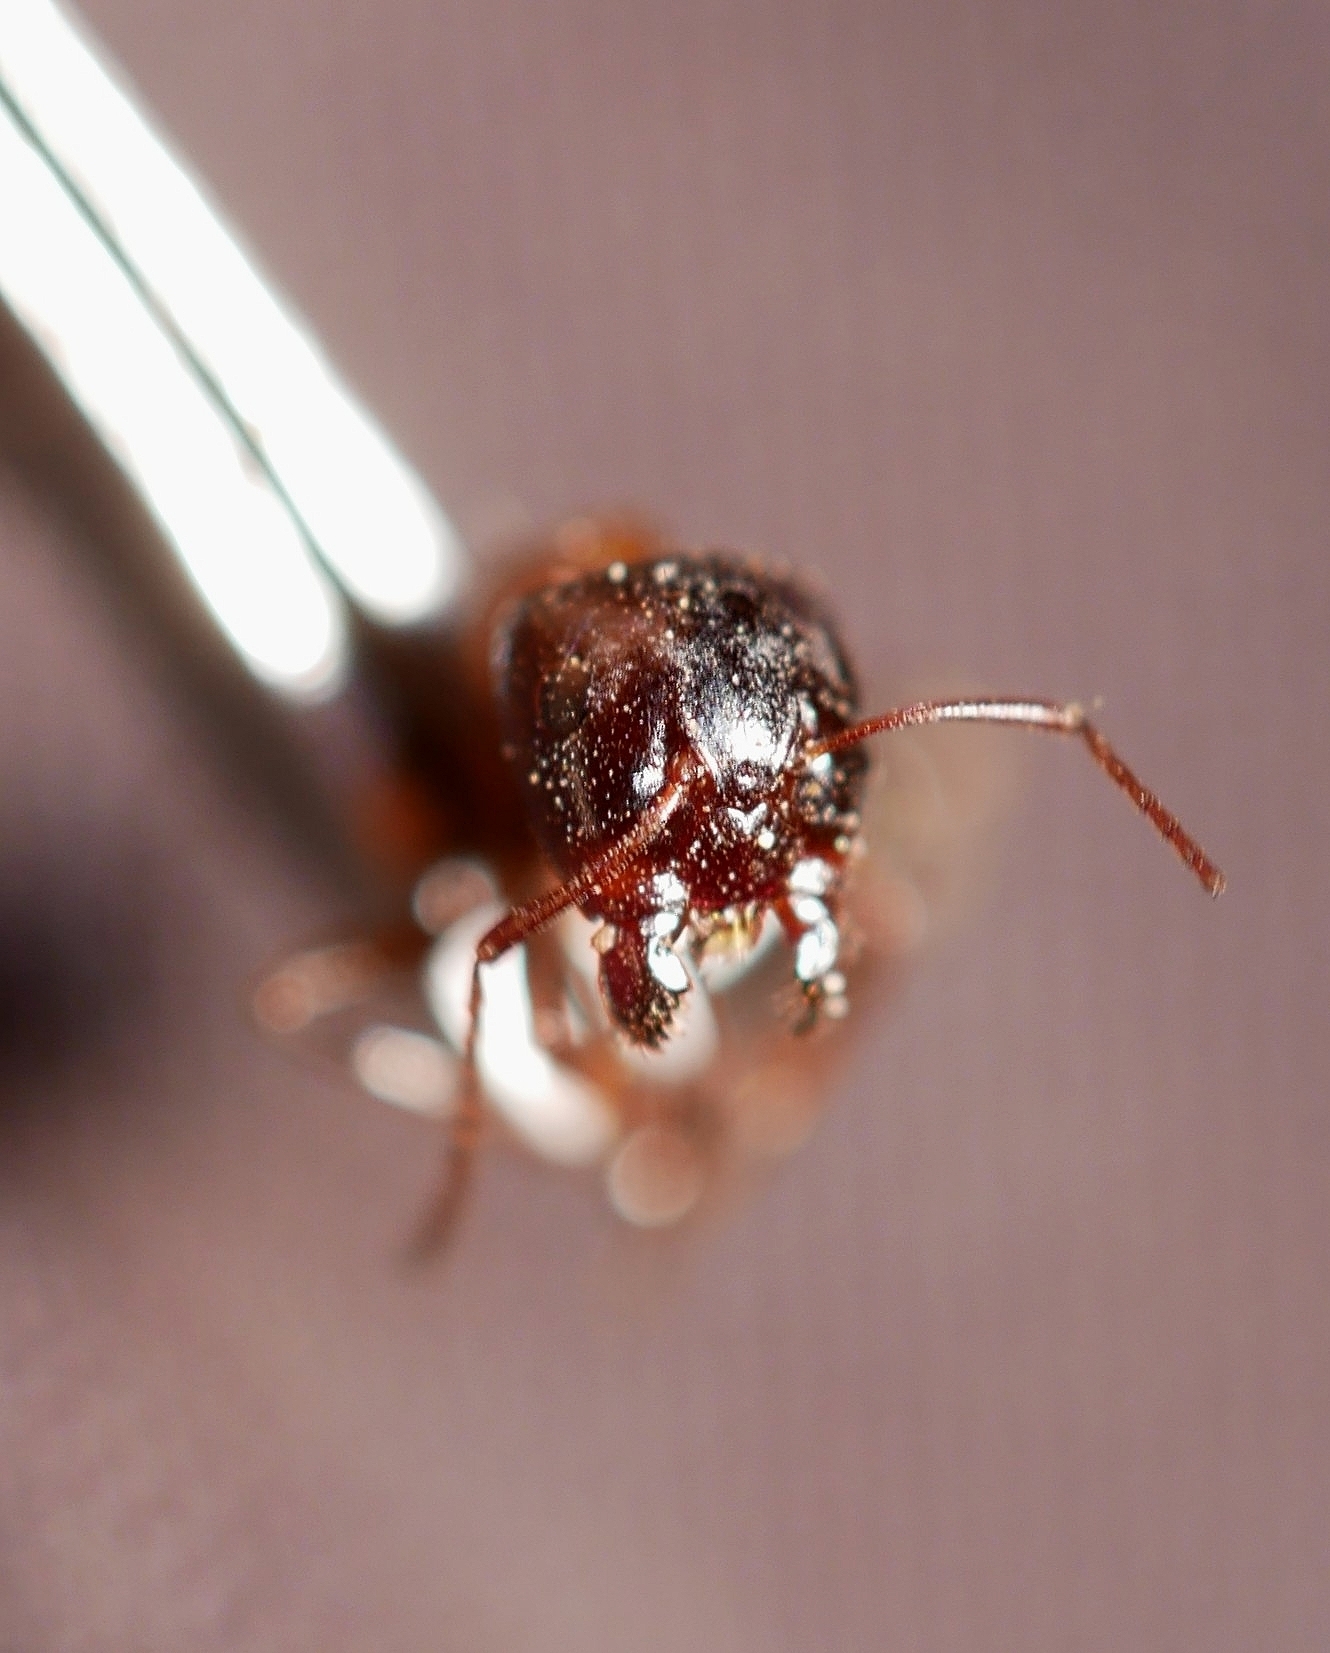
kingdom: Animalia
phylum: Arthropoda
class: Insecta
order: Hymenoptera
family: Formicidae
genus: Camponotus
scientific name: Camponotus essigi
